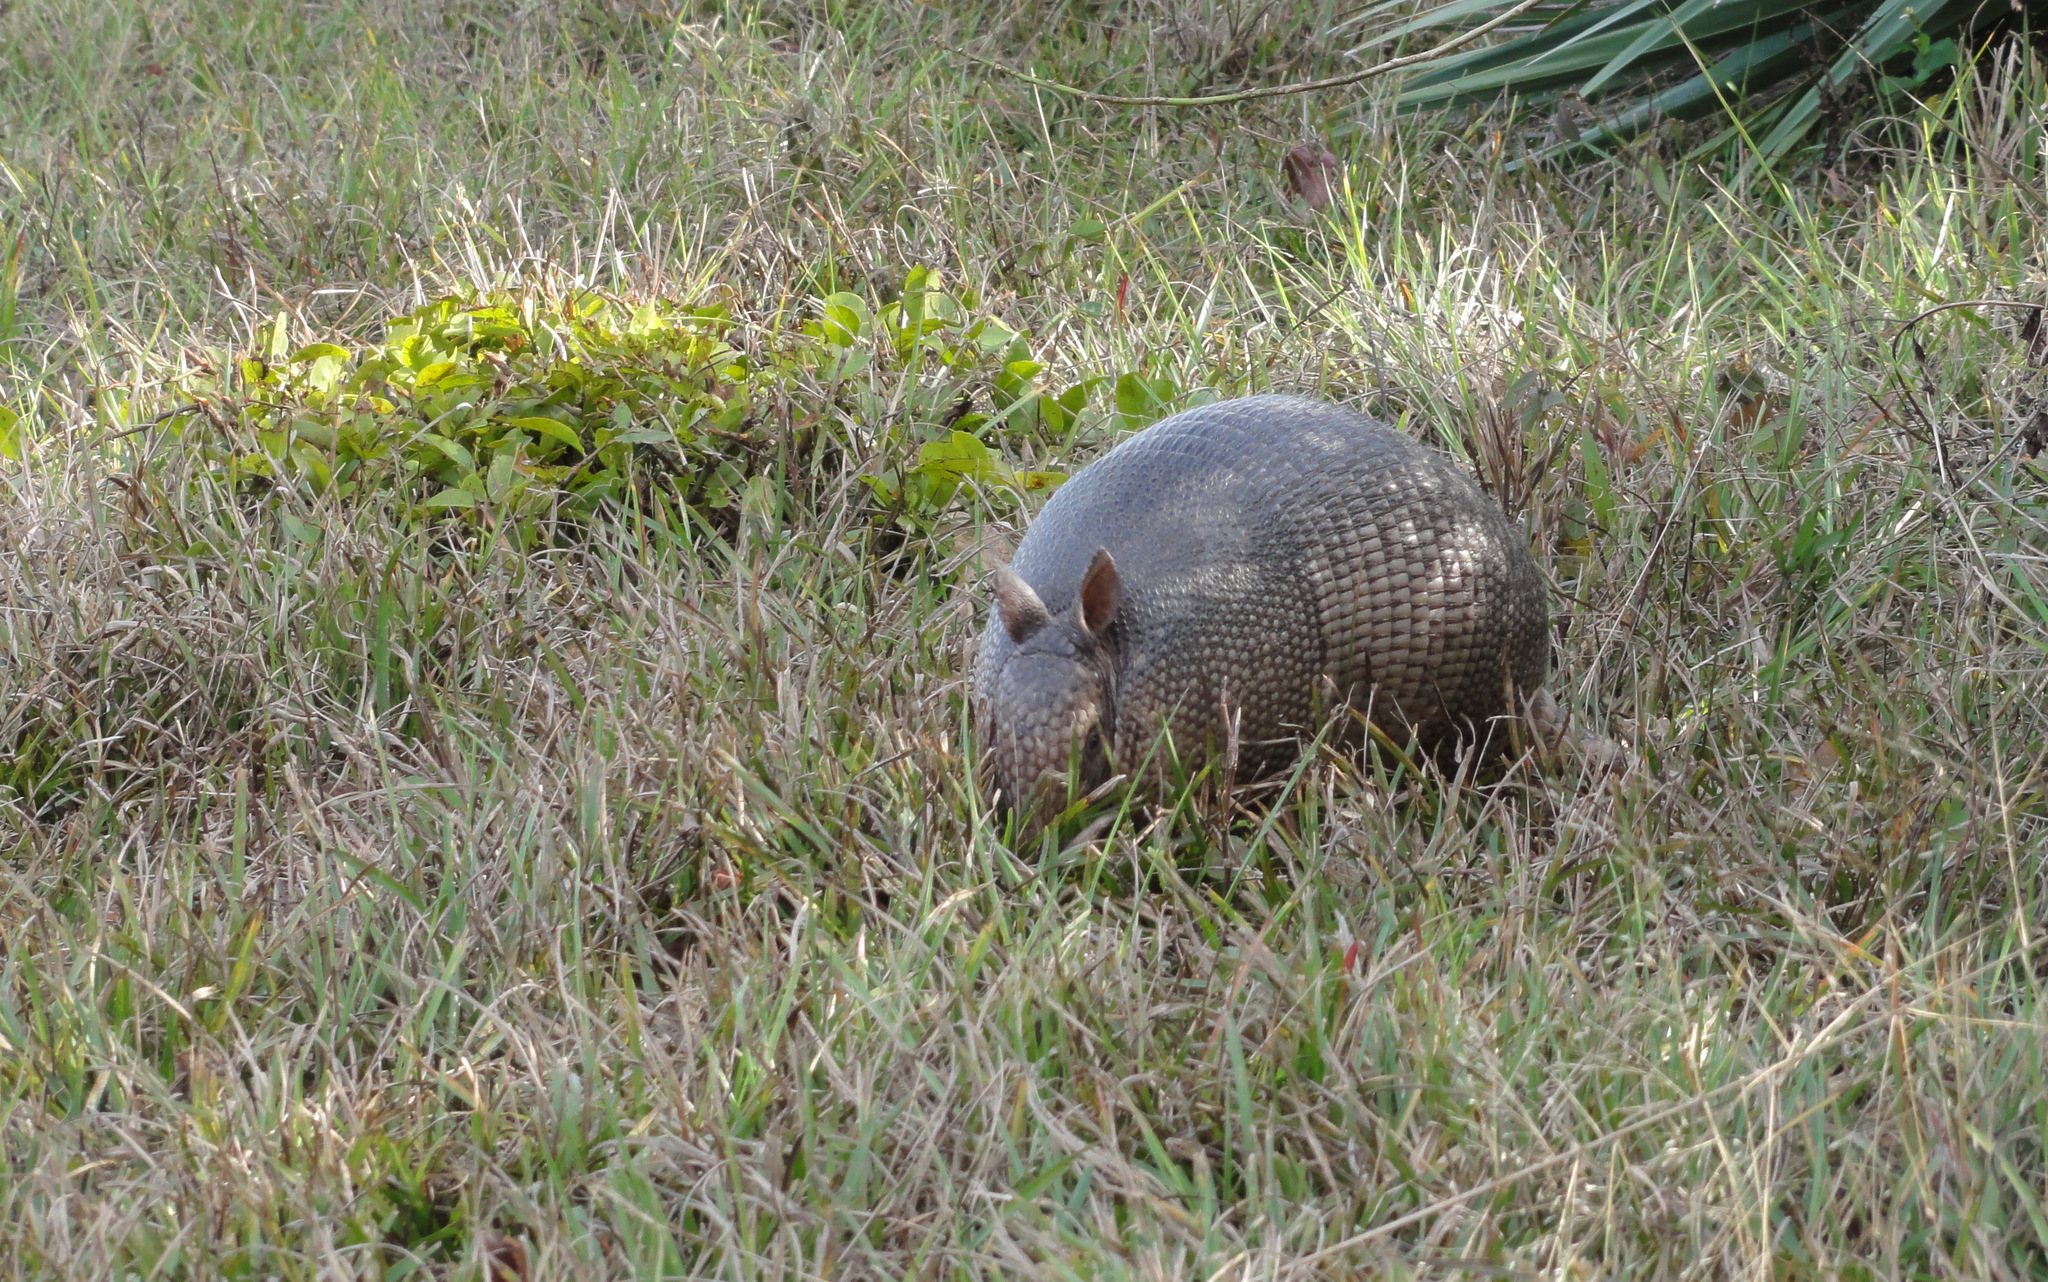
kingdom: Animalia
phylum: Chordata
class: Mammalia
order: Cingulata
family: Dasypodidae
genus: Dasypus
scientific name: Dasypus novemcinctus
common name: Nine-banded armadillo
